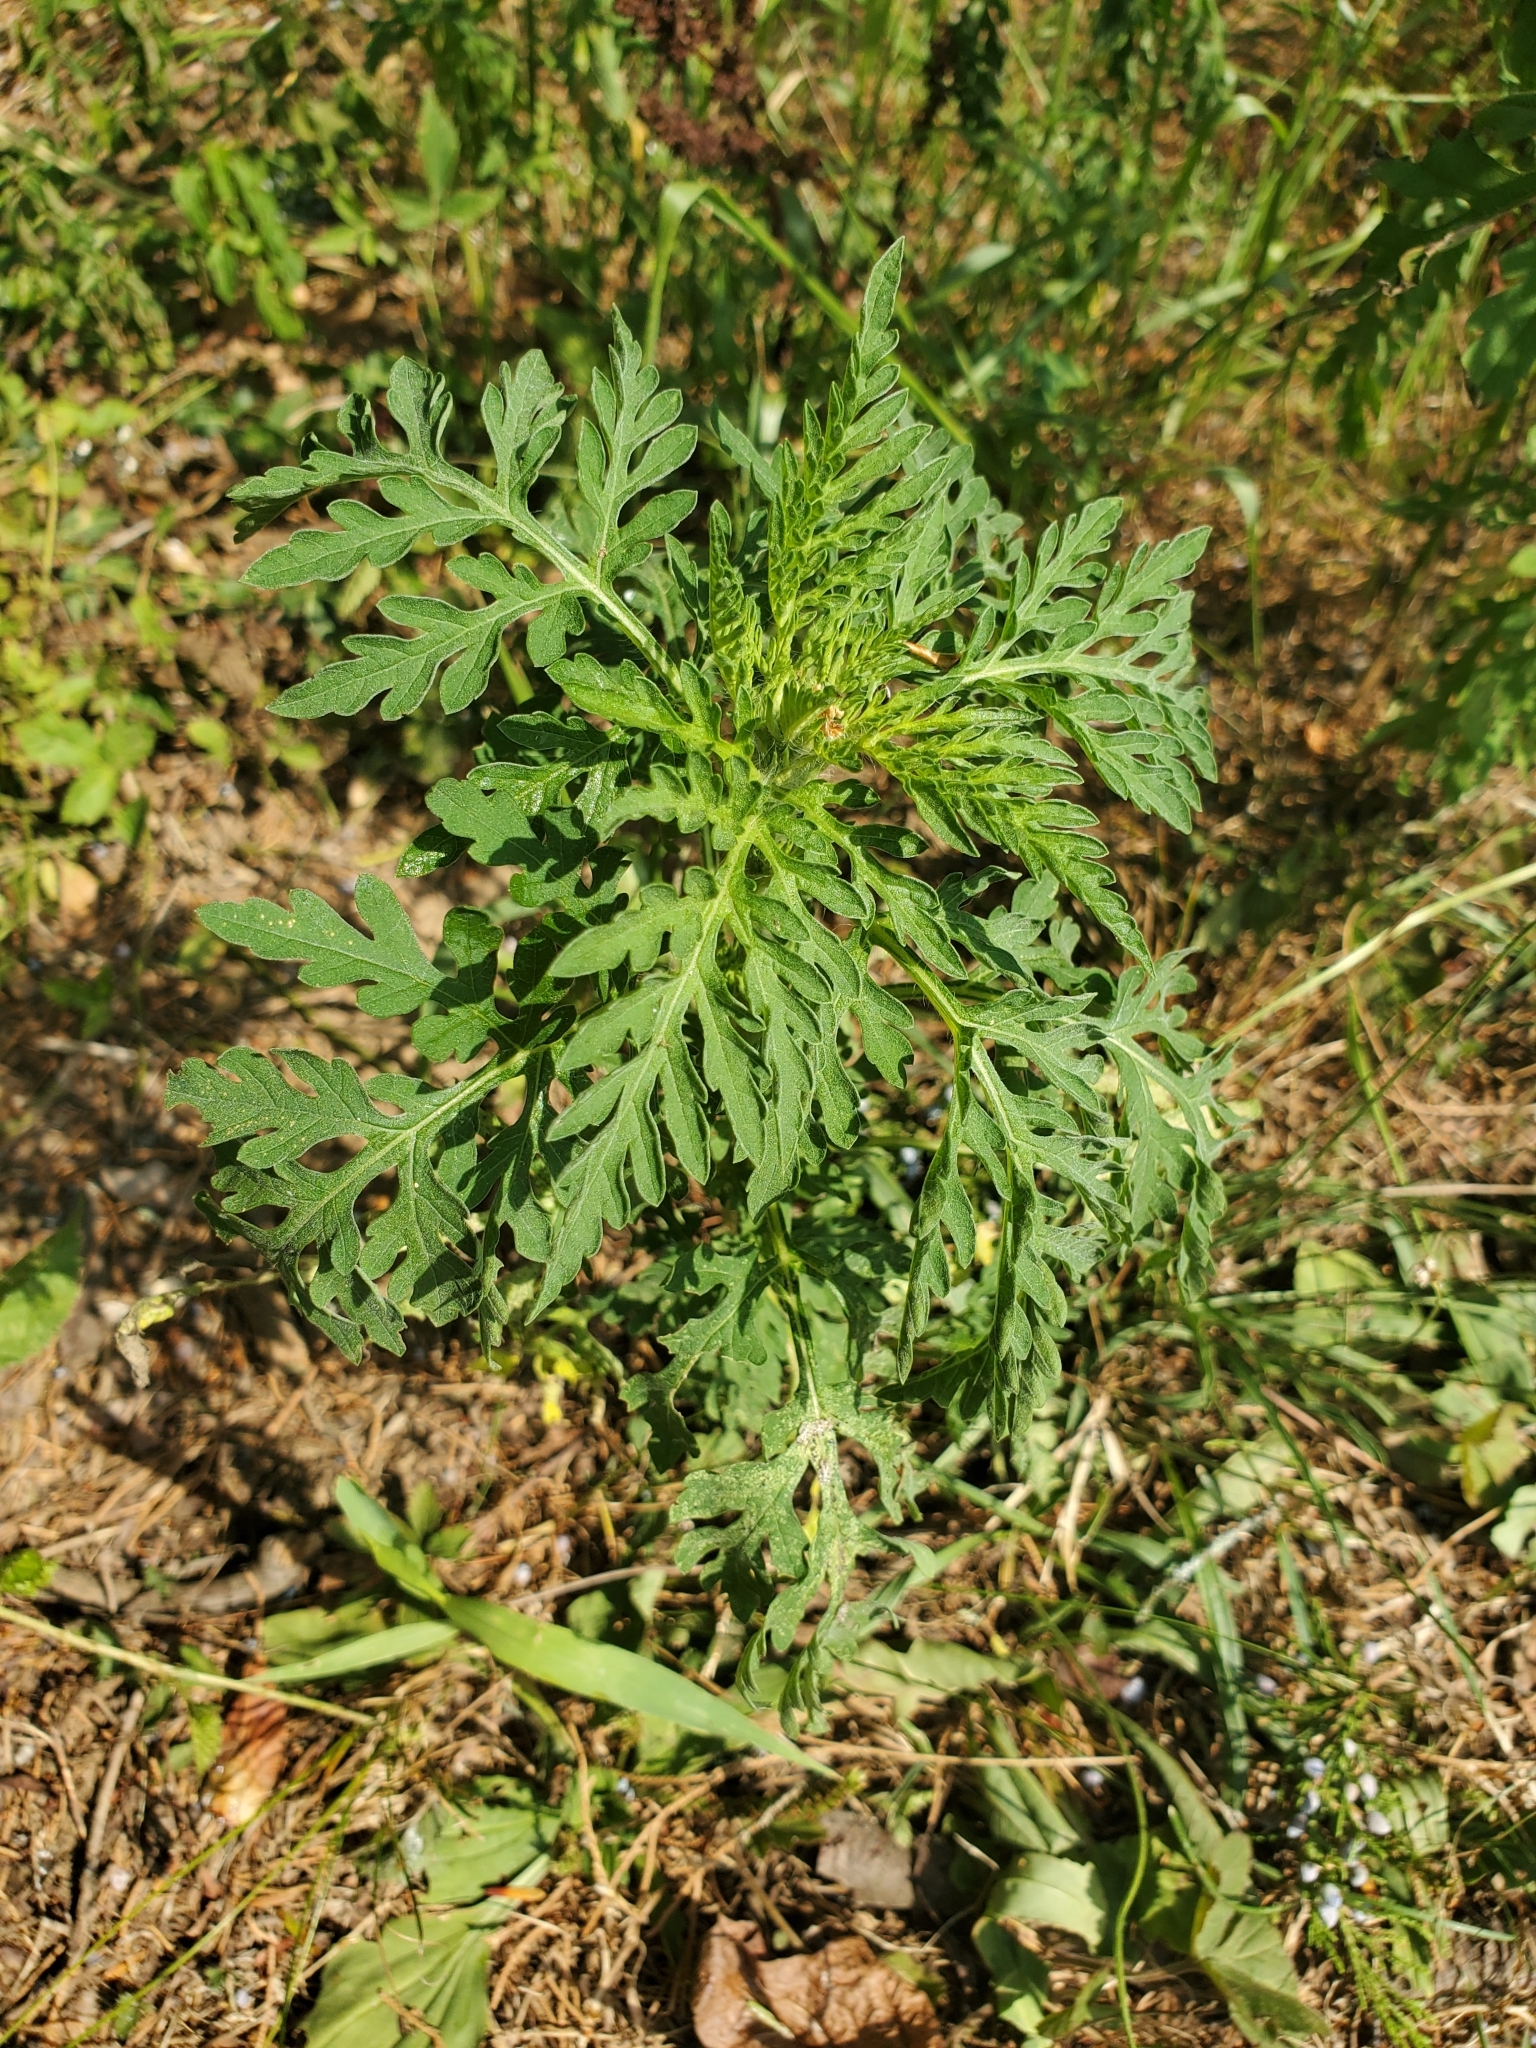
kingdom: Plantae
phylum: Tracheophyta
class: Magnoliopsida
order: Asterales
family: Asteraceae
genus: Ambrosia
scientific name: Ambrosia artemisiifolia
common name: Annual ragweed
